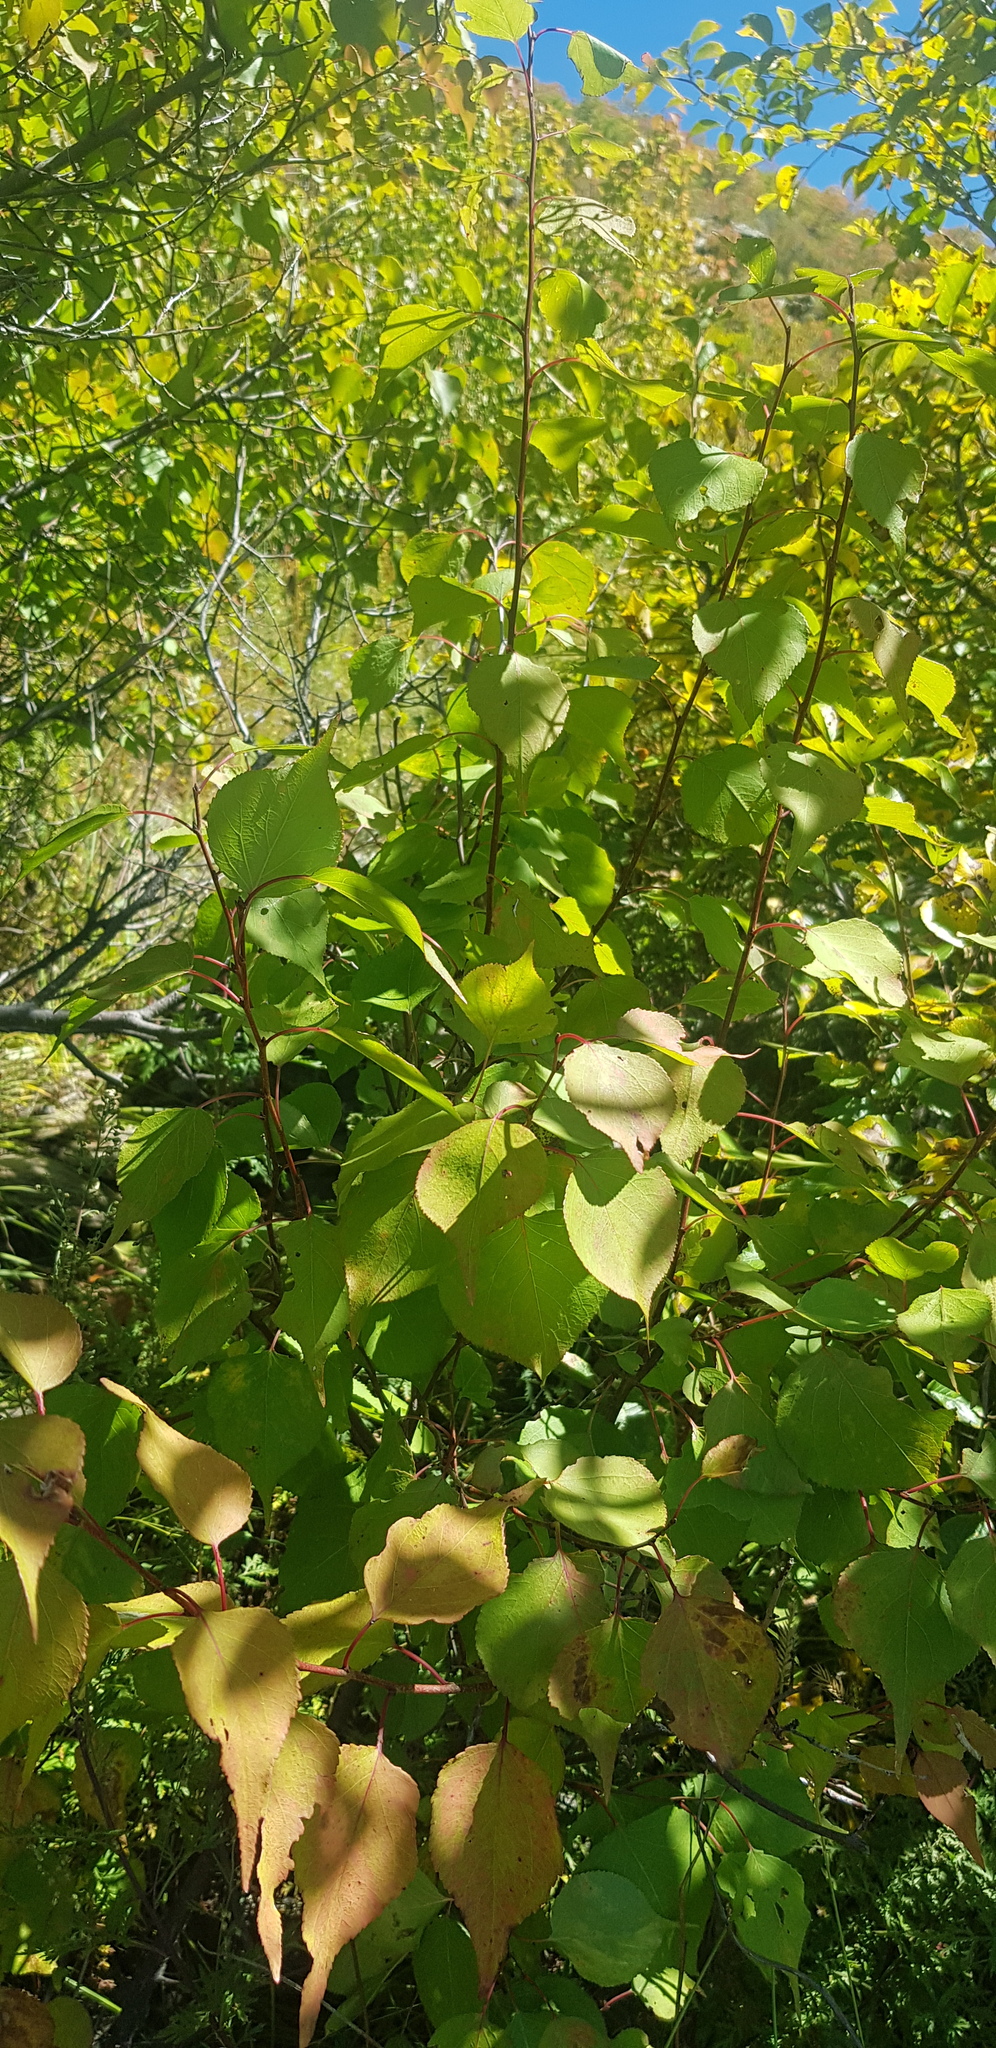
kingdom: Plantae
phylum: Tracheophyta
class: Magnoliopsida
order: Rosales
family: Rosaceae
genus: Prunus
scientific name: Prunus sibirica
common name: Siberian apricot
